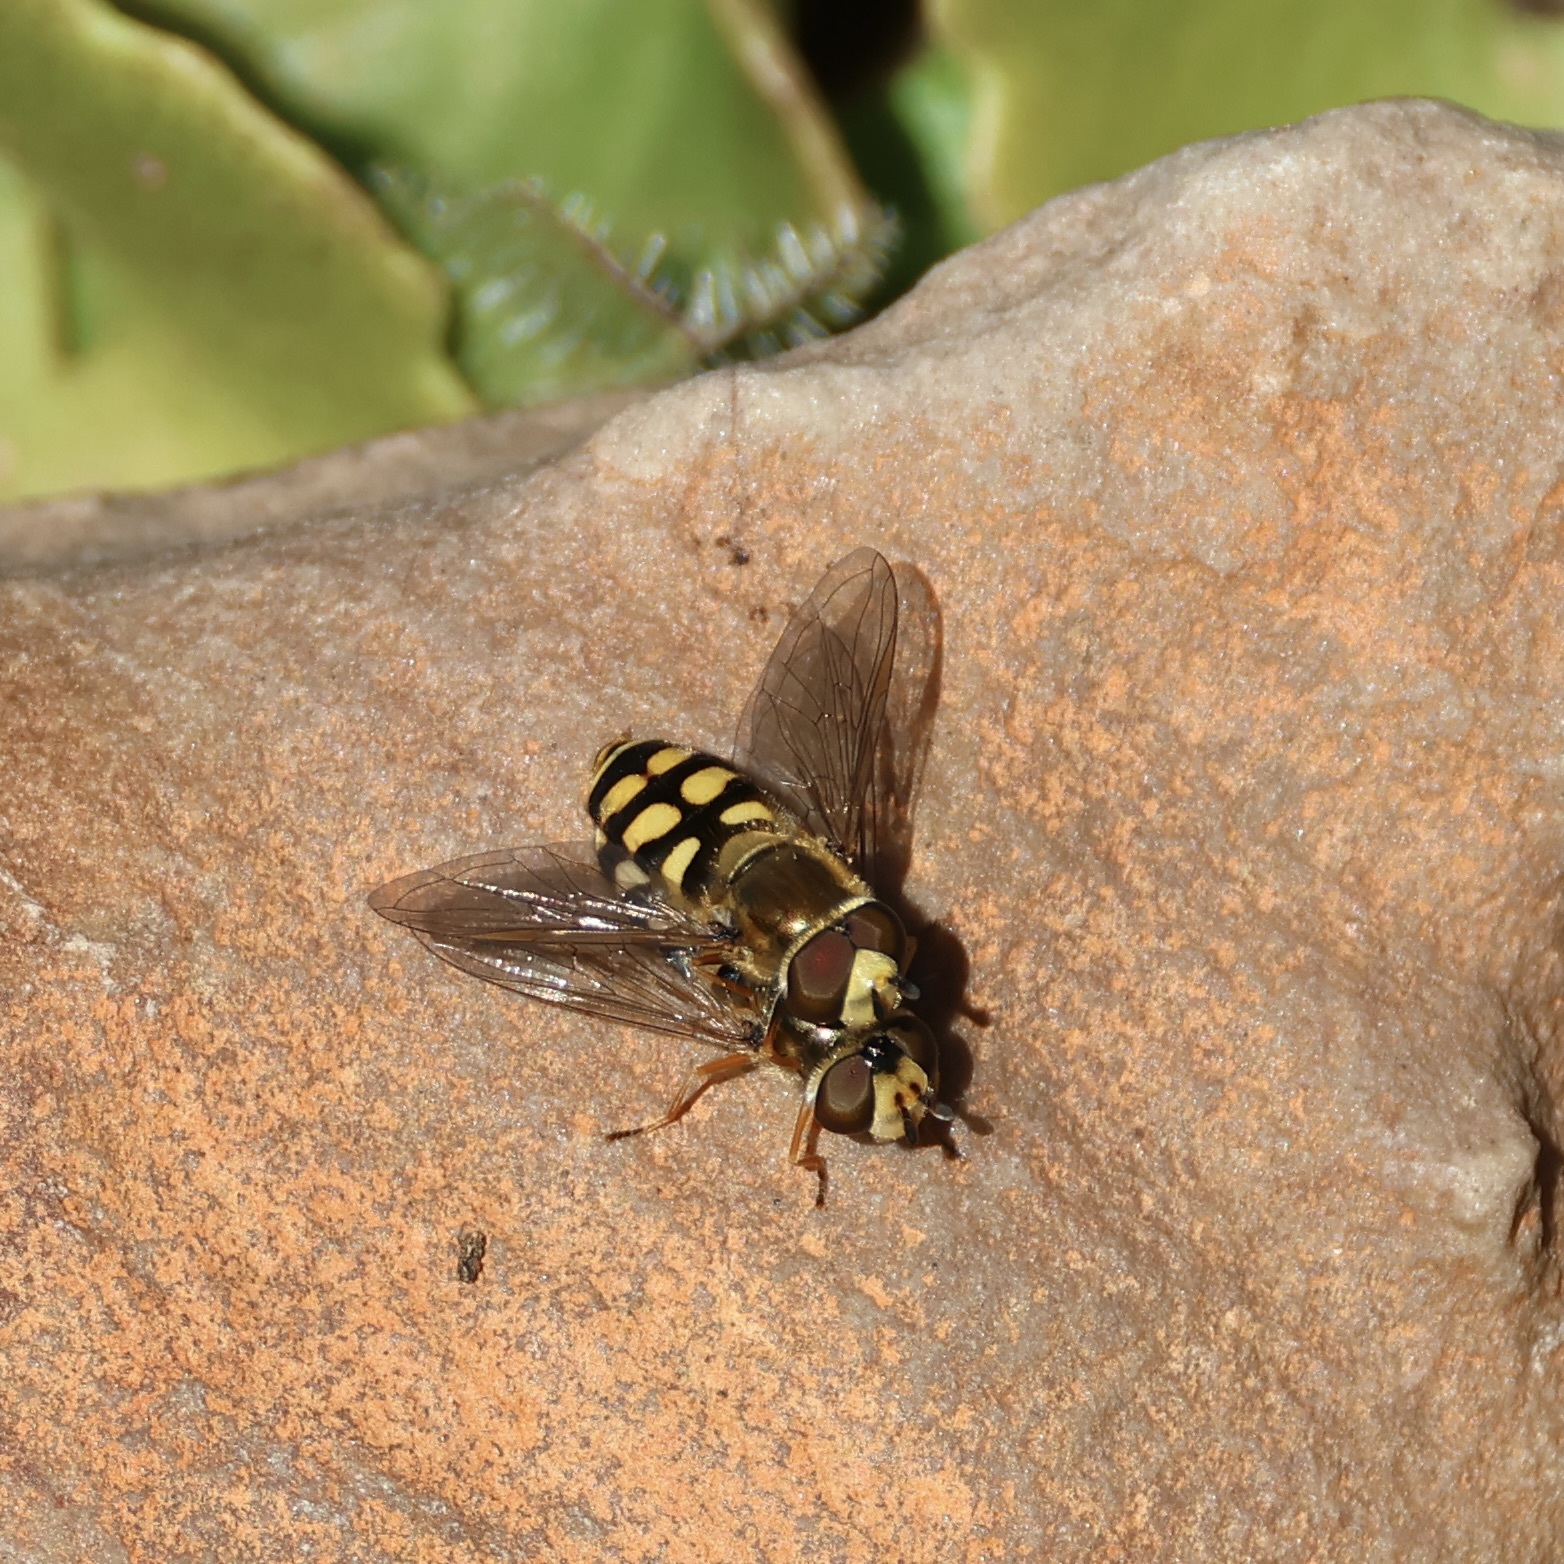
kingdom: Animalia
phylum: Arthropoda
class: Insecta
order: Diptera
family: Syrphidae
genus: Eupeodes
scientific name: Eupeodes corollae
